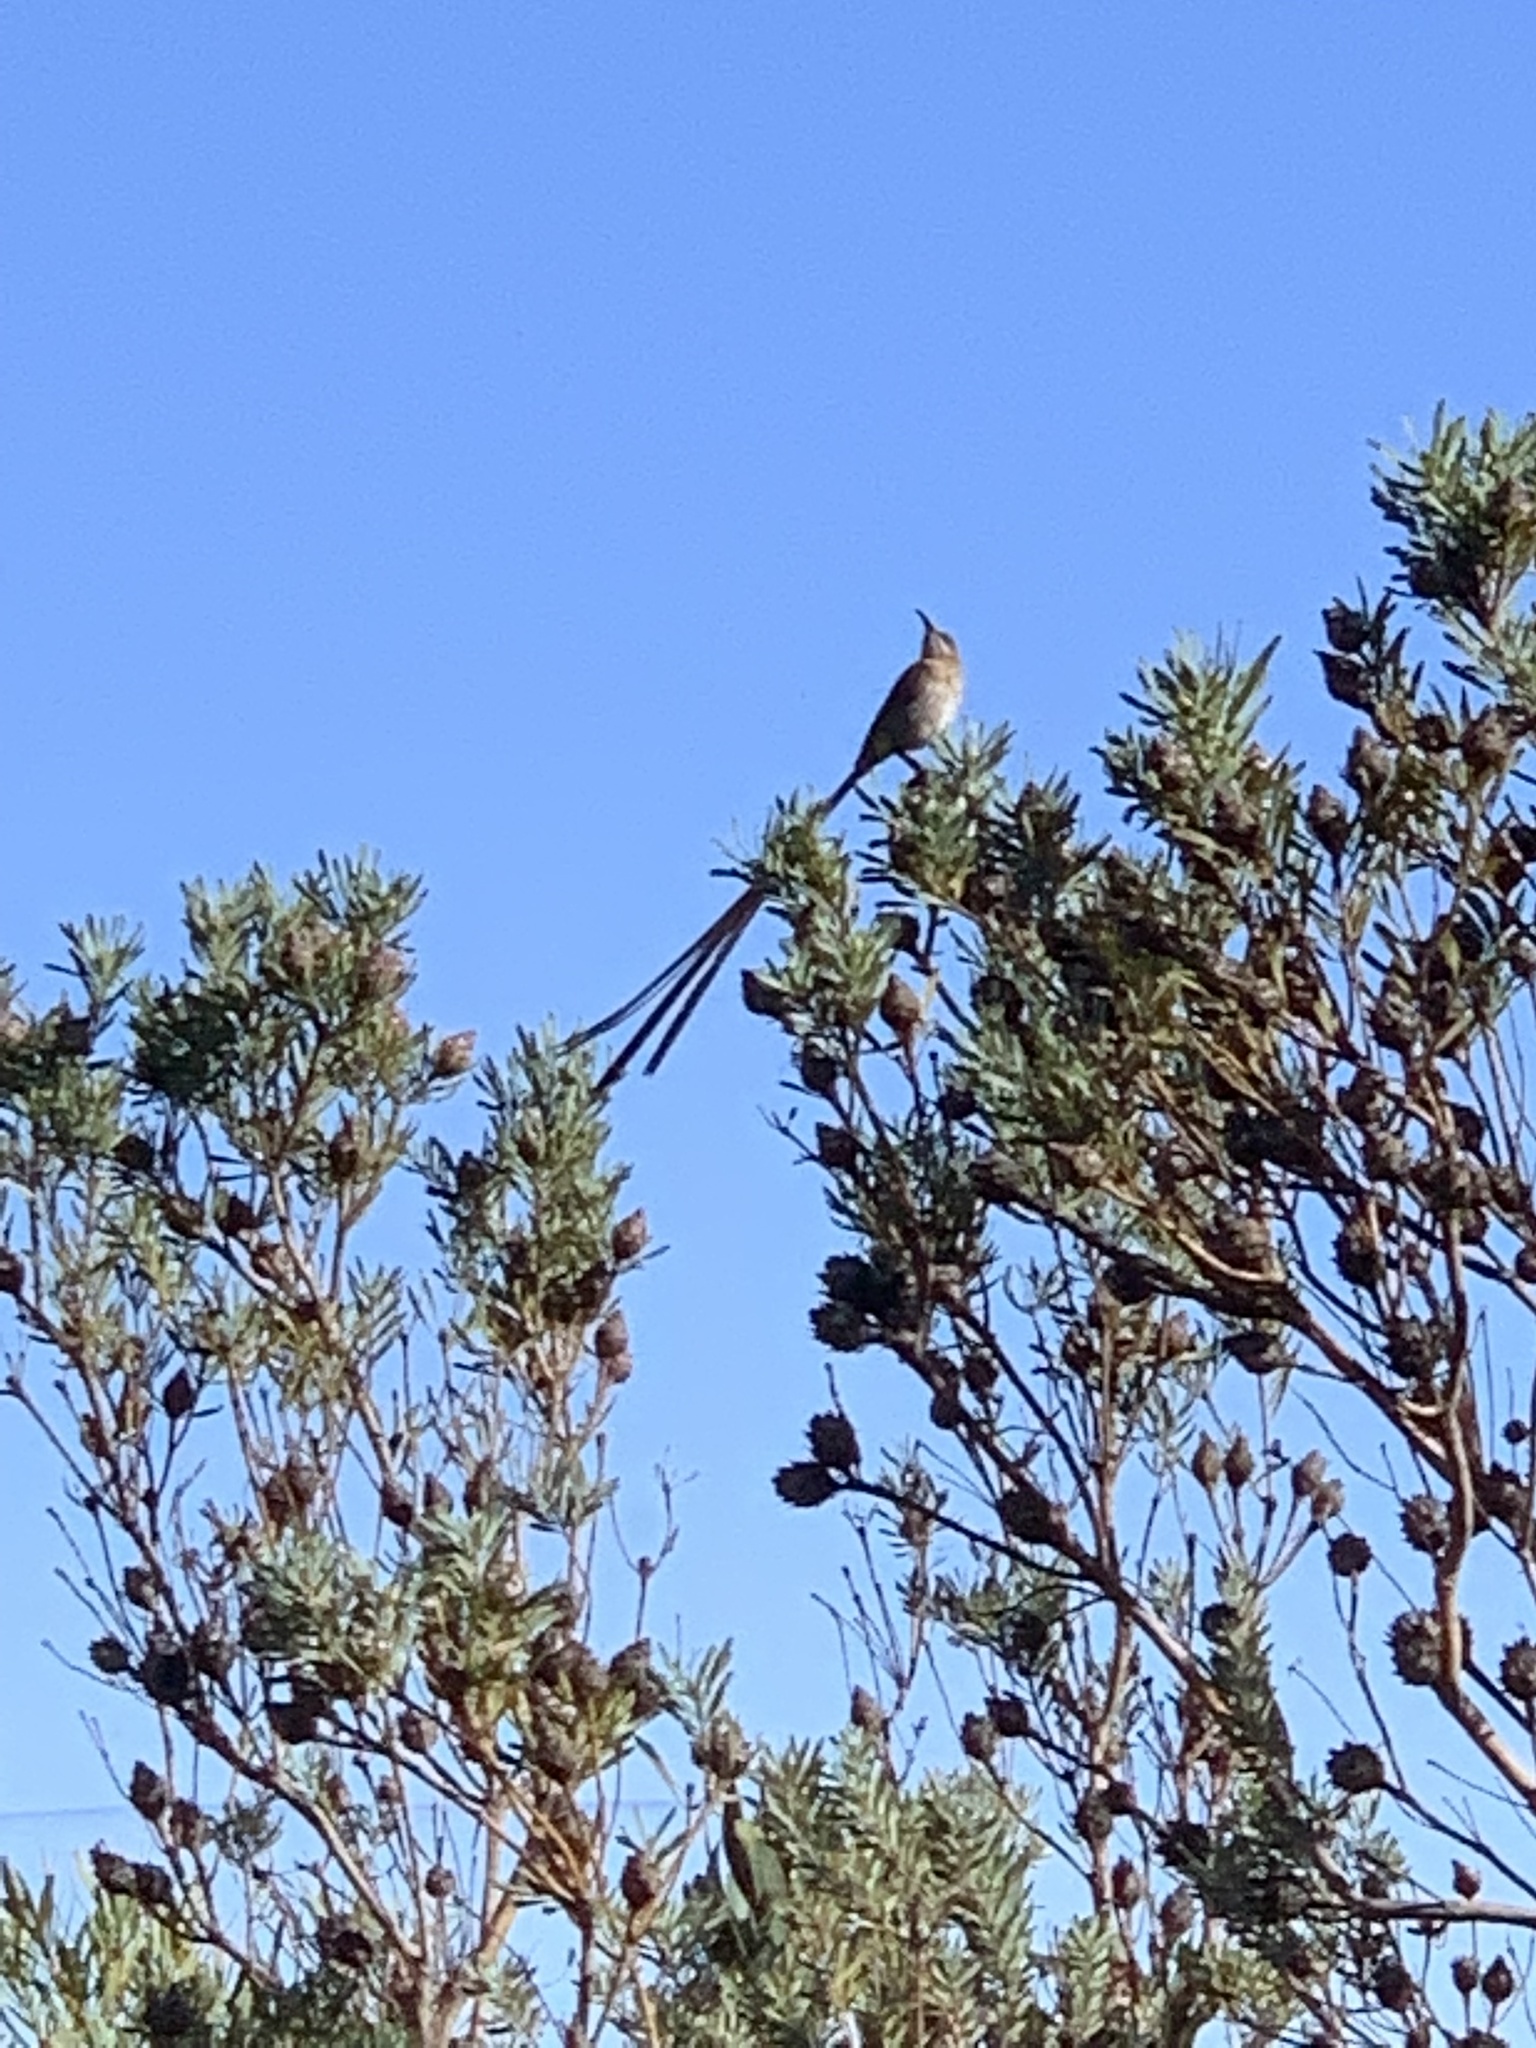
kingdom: Animalia
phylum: Chordata
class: Aves
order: Passeriformes
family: Promeropidae
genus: Promerops
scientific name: Promerops cafer
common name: Cape sugarbird
